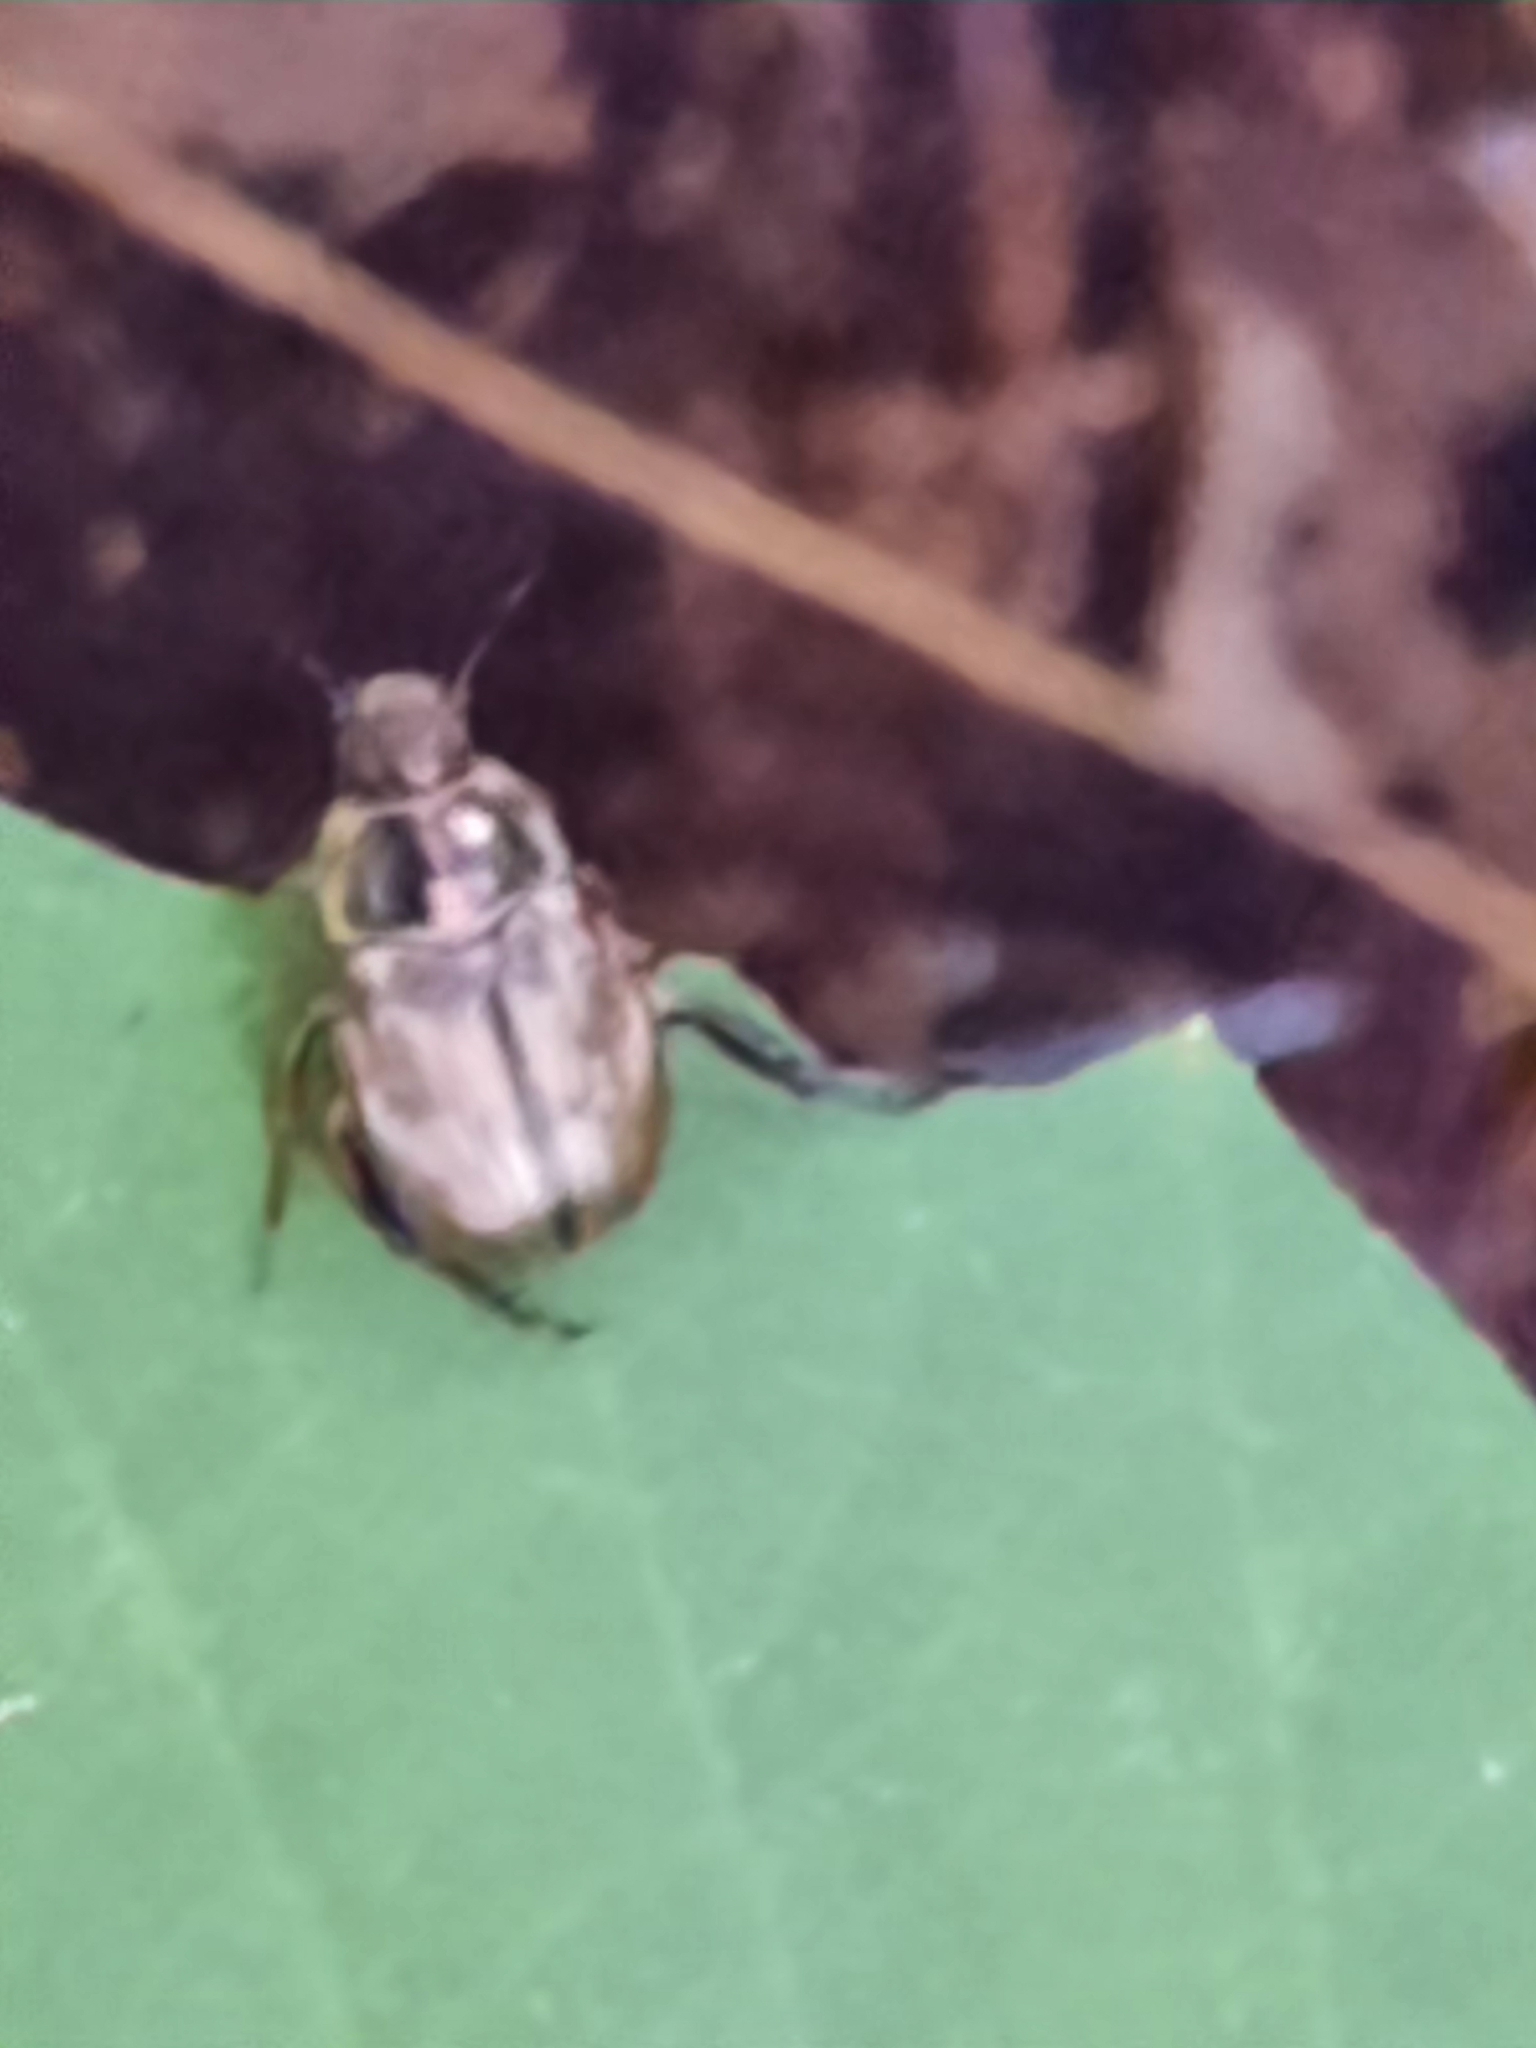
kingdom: Animalia
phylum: Arthropoda
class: Insecta
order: Coleoptera
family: Scarabaeidae
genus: Exomala
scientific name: Exomala orientalis
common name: Oriental beetle
